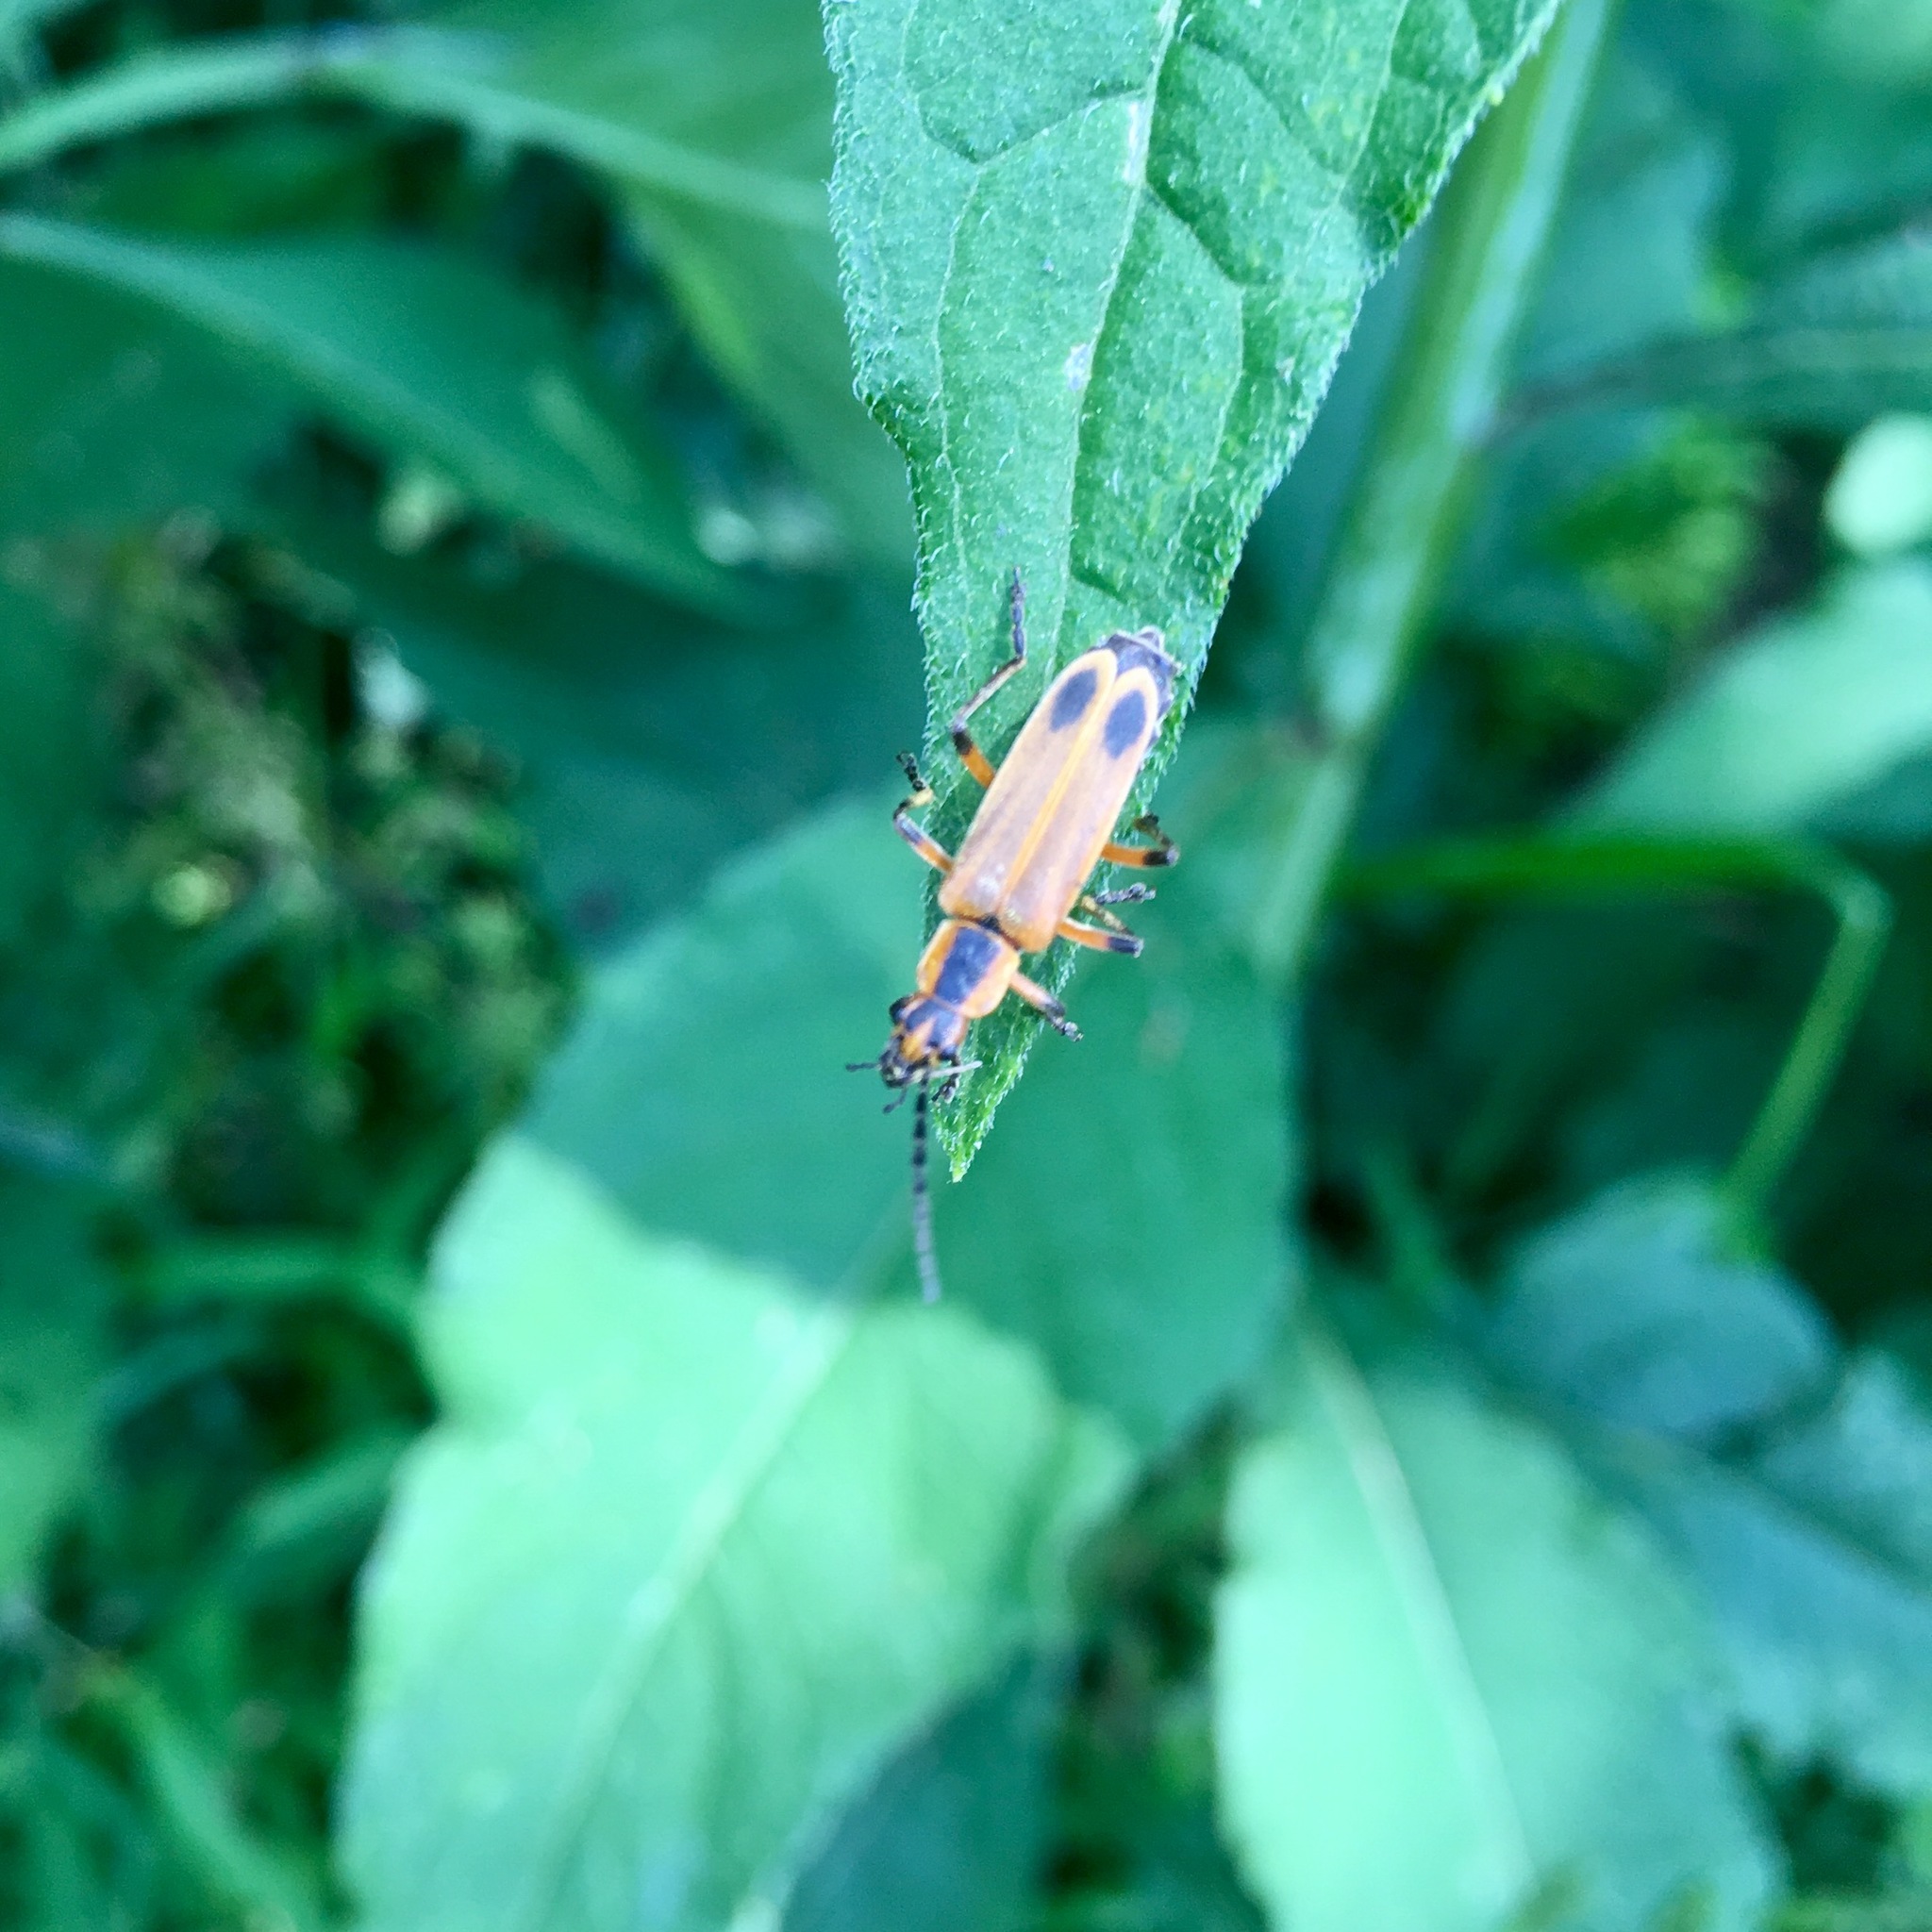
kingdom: Animalia
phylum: Arthropoda
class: Insecta
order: Coleoptera
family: Cantharidae
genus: Chauliognathus
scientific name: Chauliognathus marginatus
